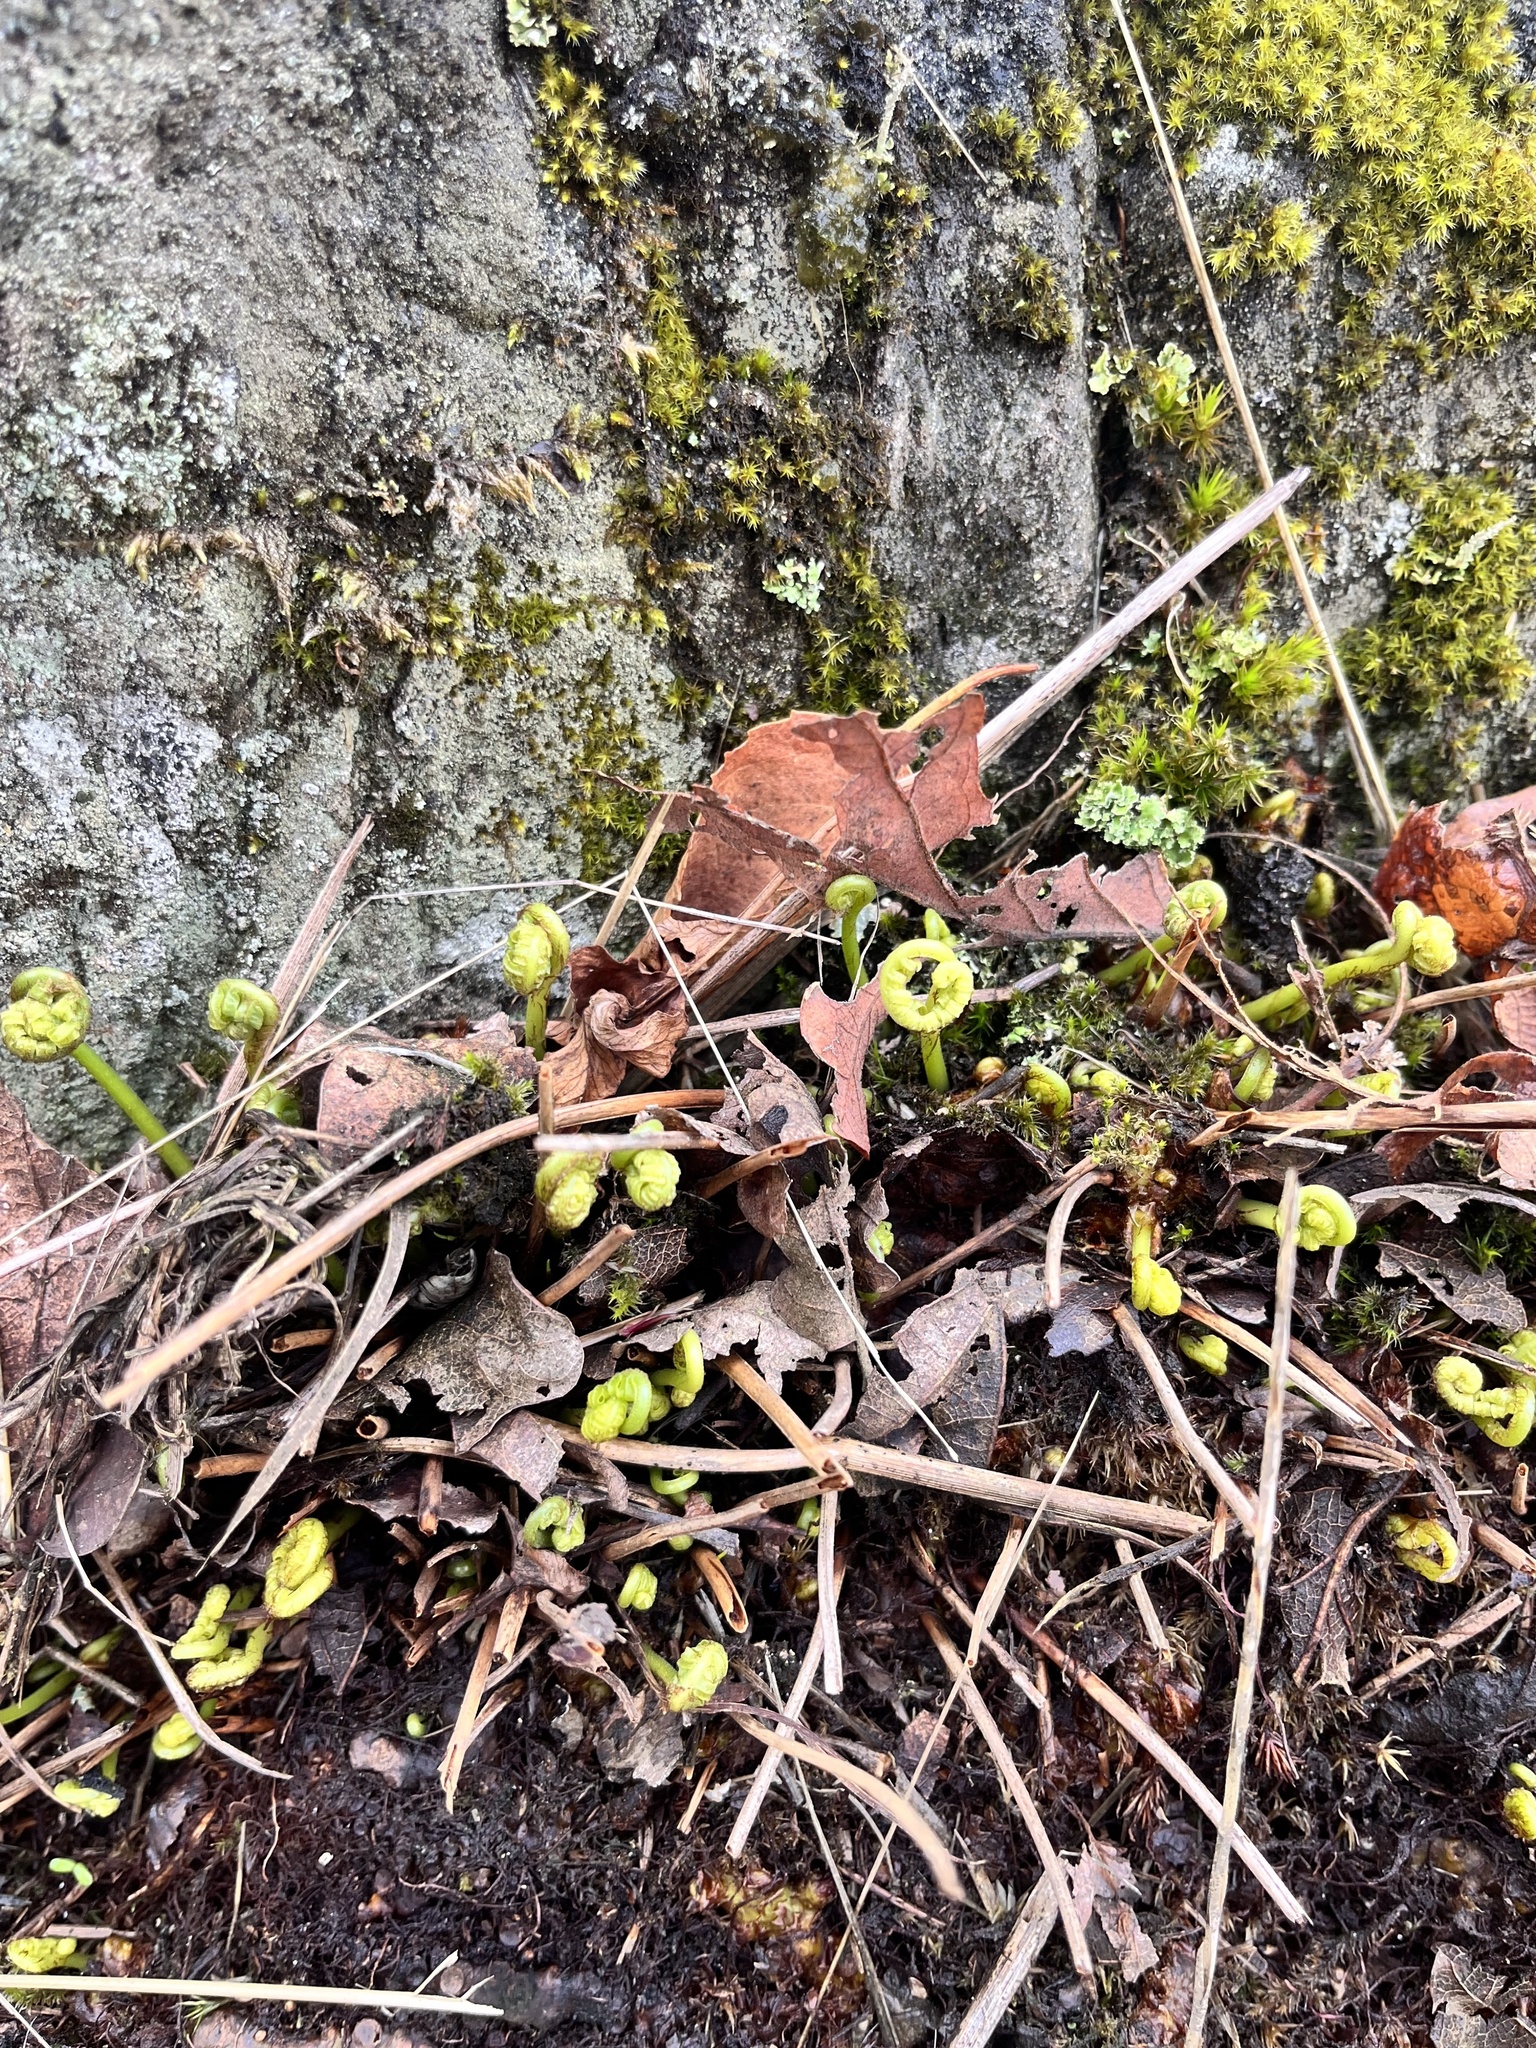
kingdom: Plantae
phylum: Tracheophyta
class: Polypodiopsida
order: Polypodiales
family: Polypodiaceae
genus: Polypodium
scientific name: Polypodium glycyrrhiza
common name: Licorice fern
